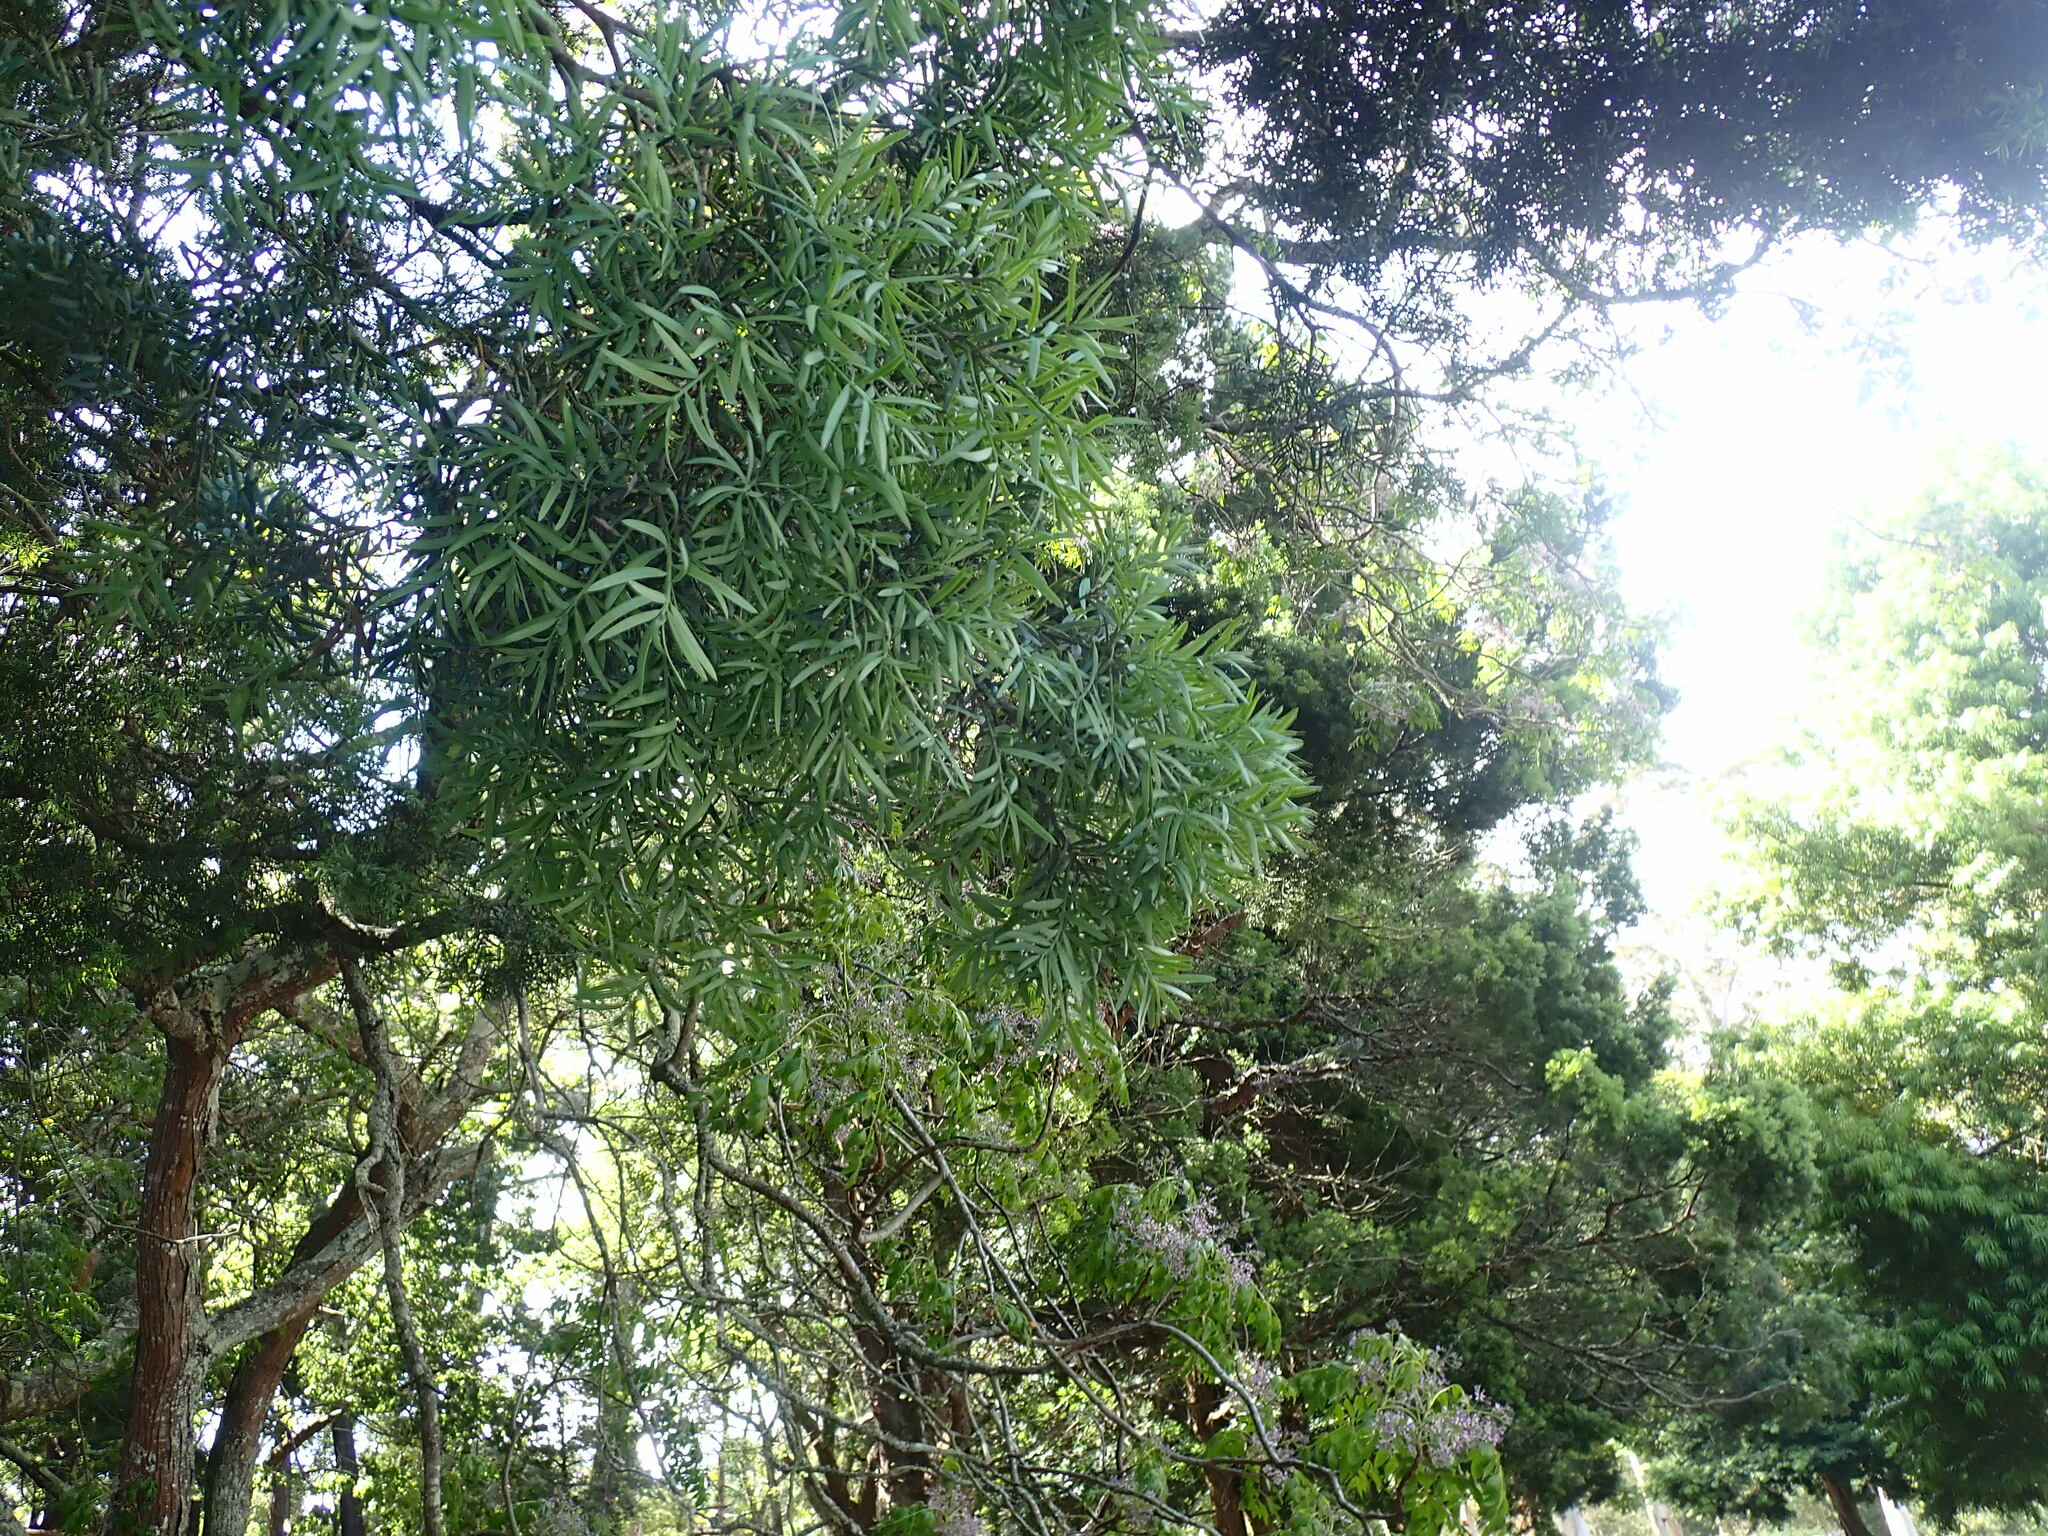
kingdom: Plantae
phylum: Tracheophyta
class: Pinopsida
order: Pinales
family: Podocarpaceae
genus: Afrocarpus
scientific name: Afrocarpus falcatus
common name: Bastard yellowwood
